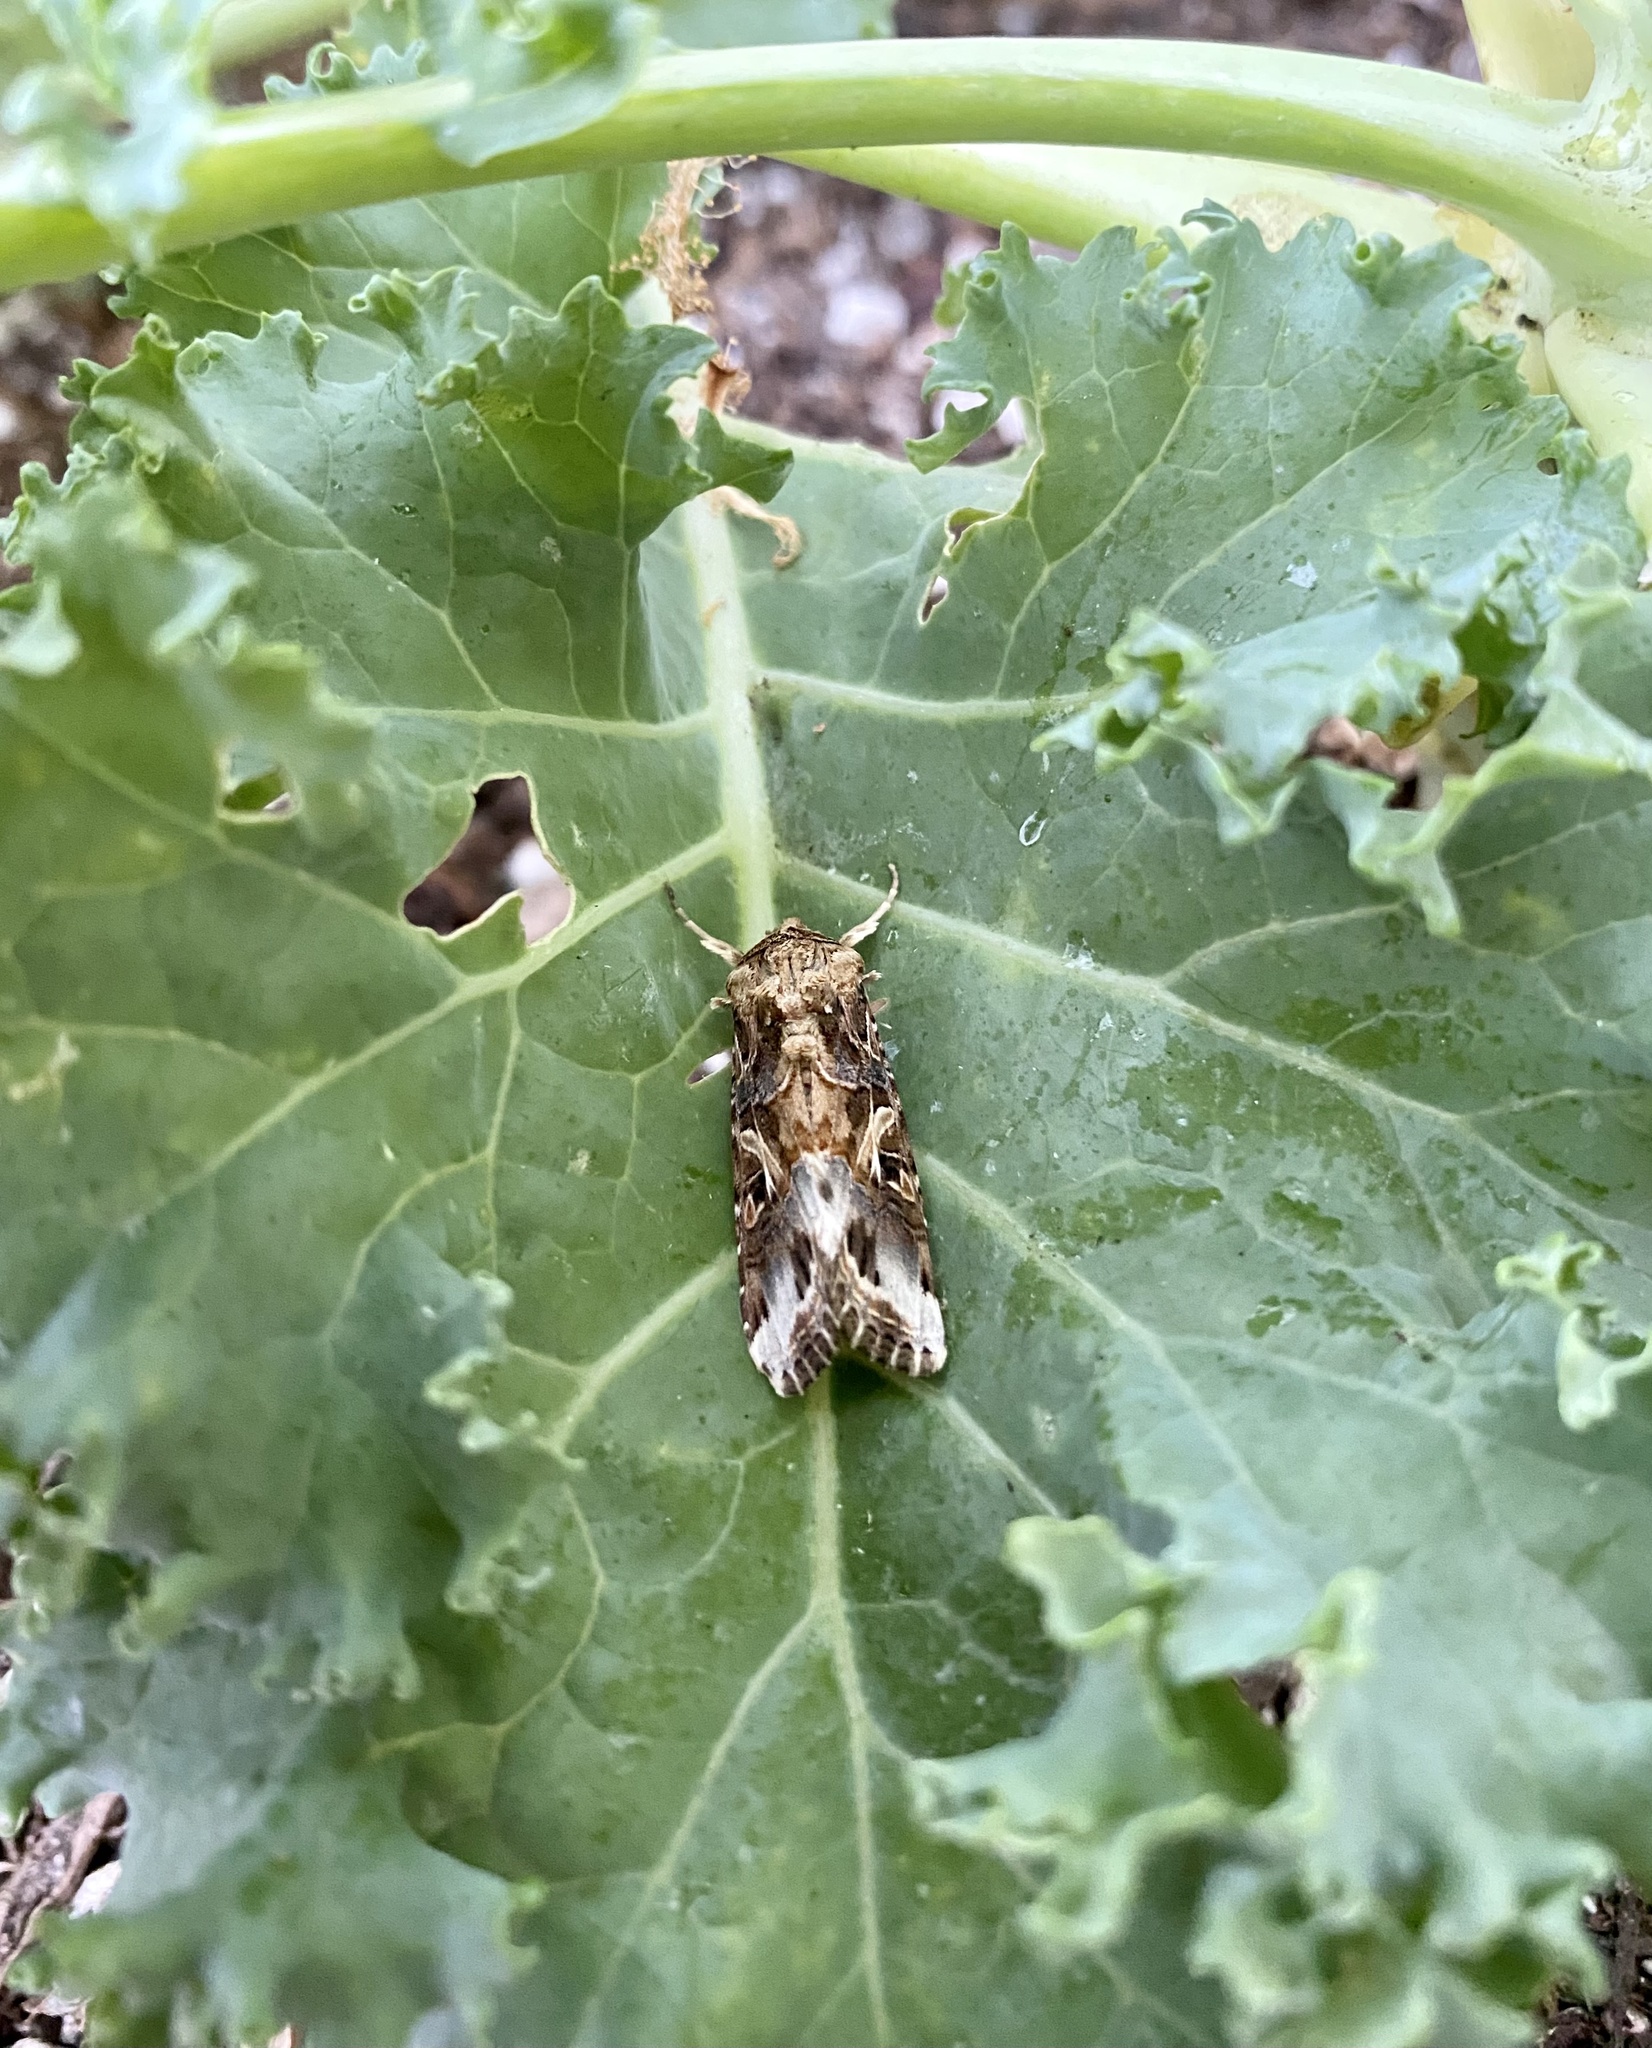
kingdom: Animalia
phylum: Arthropoda
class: Insecta
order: Lepidoptera
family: Noctuidae
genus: Spodoptera
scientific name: Spodoptera ornithogalli
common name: Yellow-striped armyworm
